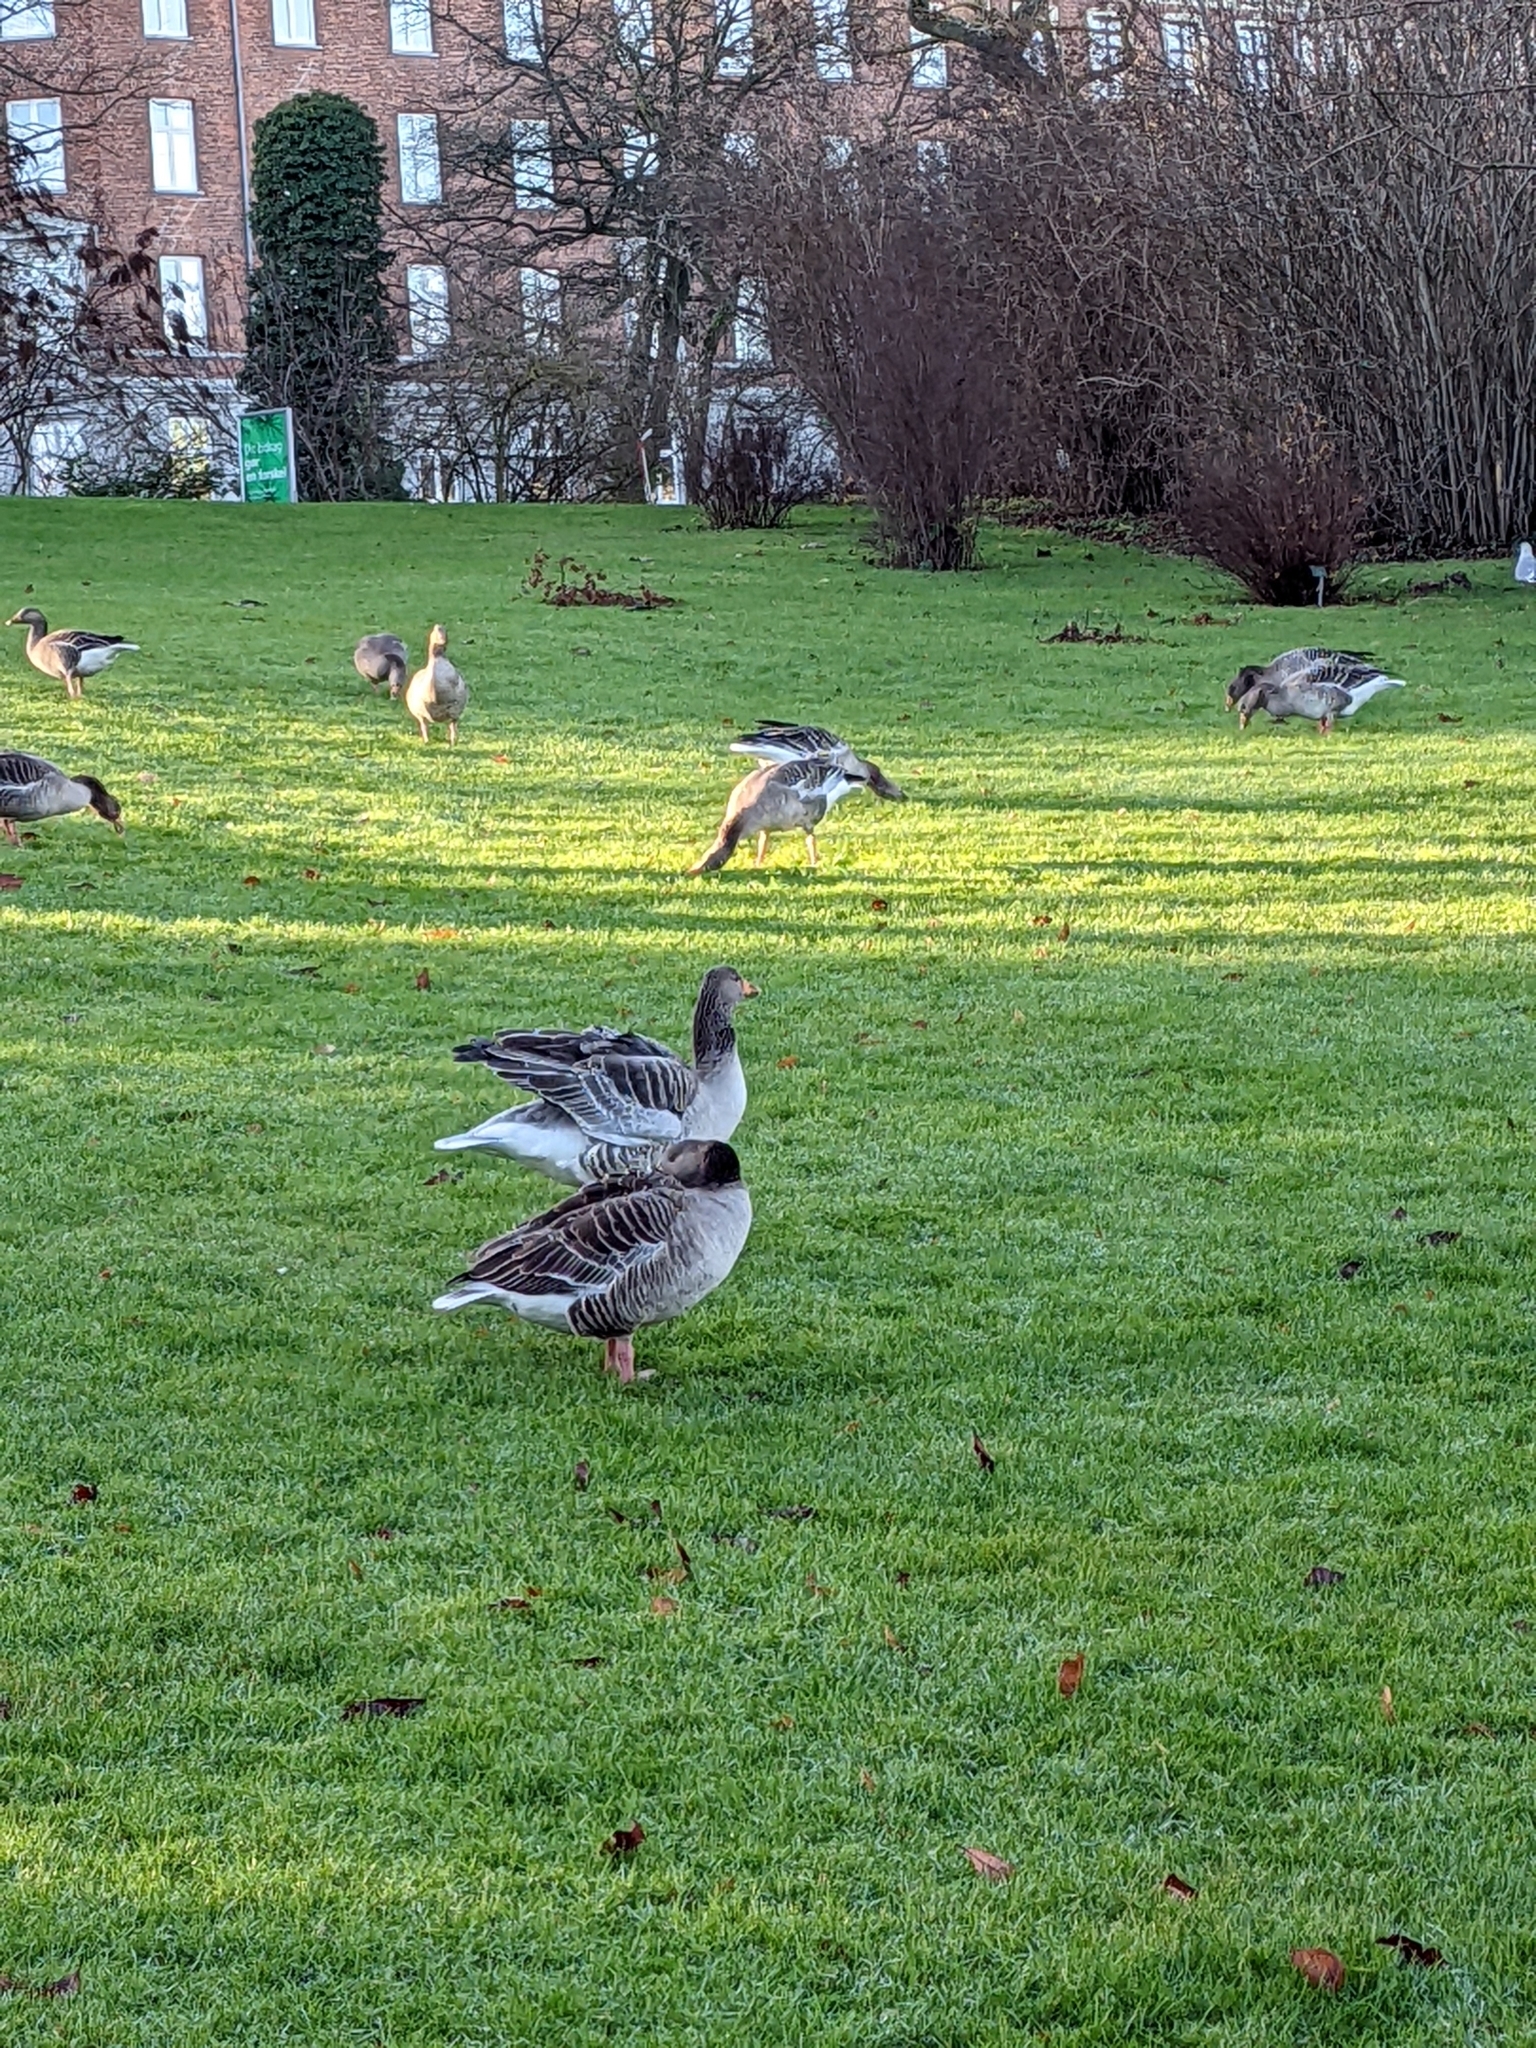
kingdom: Animalia
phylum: Chordata
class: Aves
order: Anseriformes
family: Anatidae
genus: Anser
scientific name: Anser anser
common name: Greylag goose
